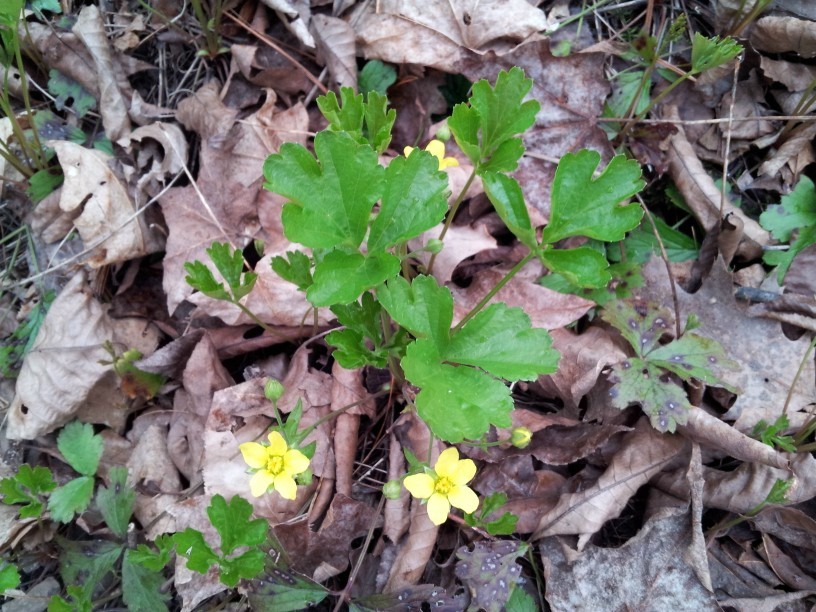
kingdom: Plantae
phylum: Tracheophyta
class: Magnoliopsida
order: Rosales
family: Rosaceae
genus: Geum
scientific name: Geum fragarioides
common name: Appalachian barren strawberry
